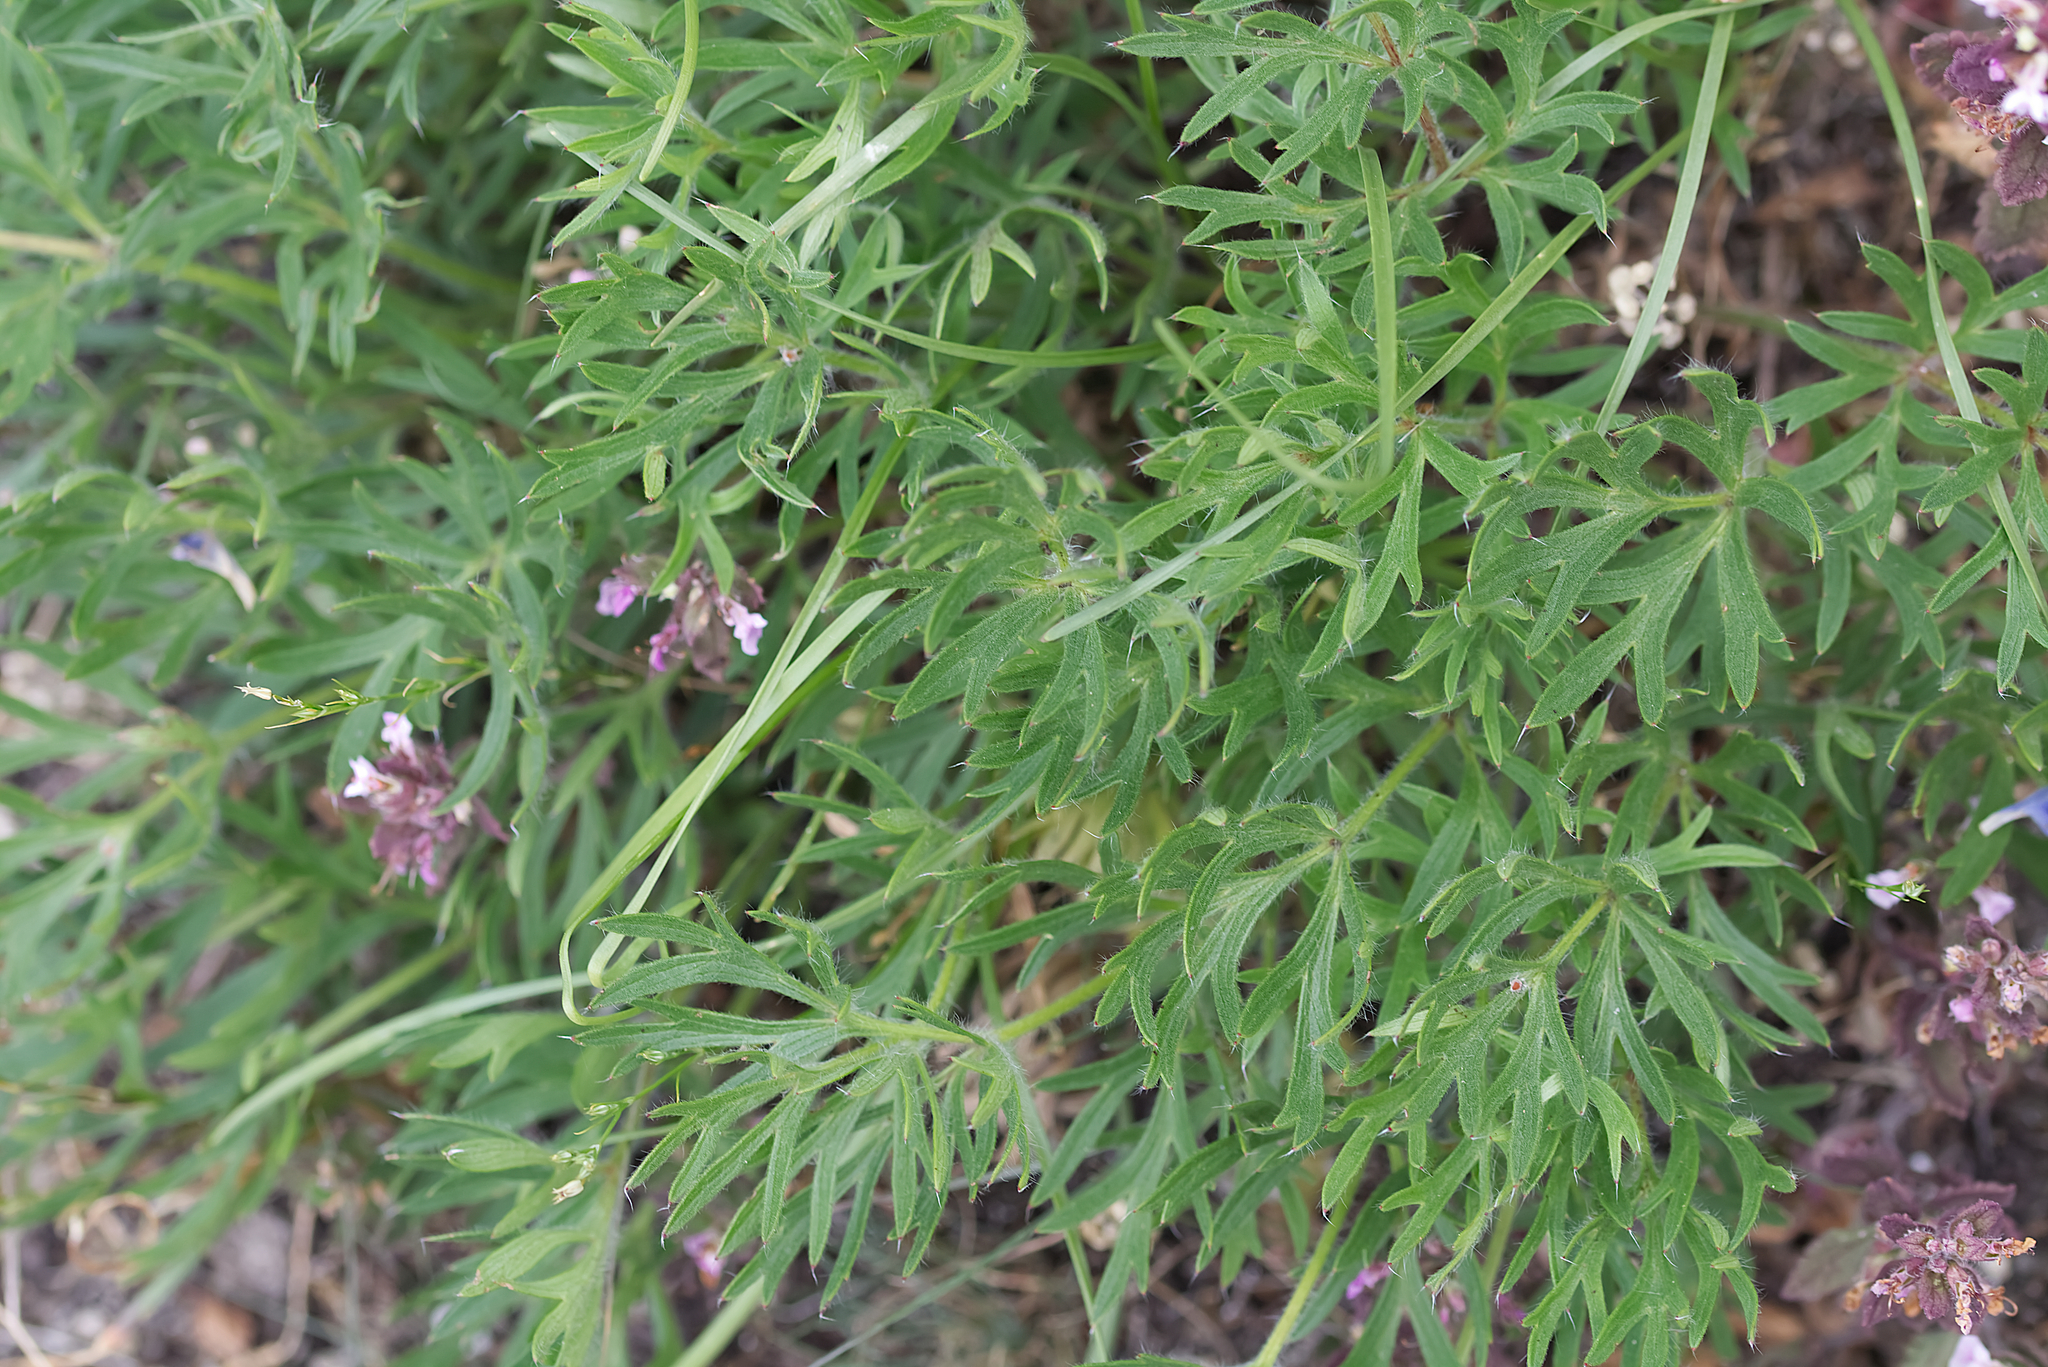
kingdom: Plantae
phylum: Tracheophyta
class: Magnoliopsida
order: Ranunculales
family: Ranunculaceae
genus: Pulsatilla
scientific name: Pulsatilla grandis
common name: Greater pasque flower
